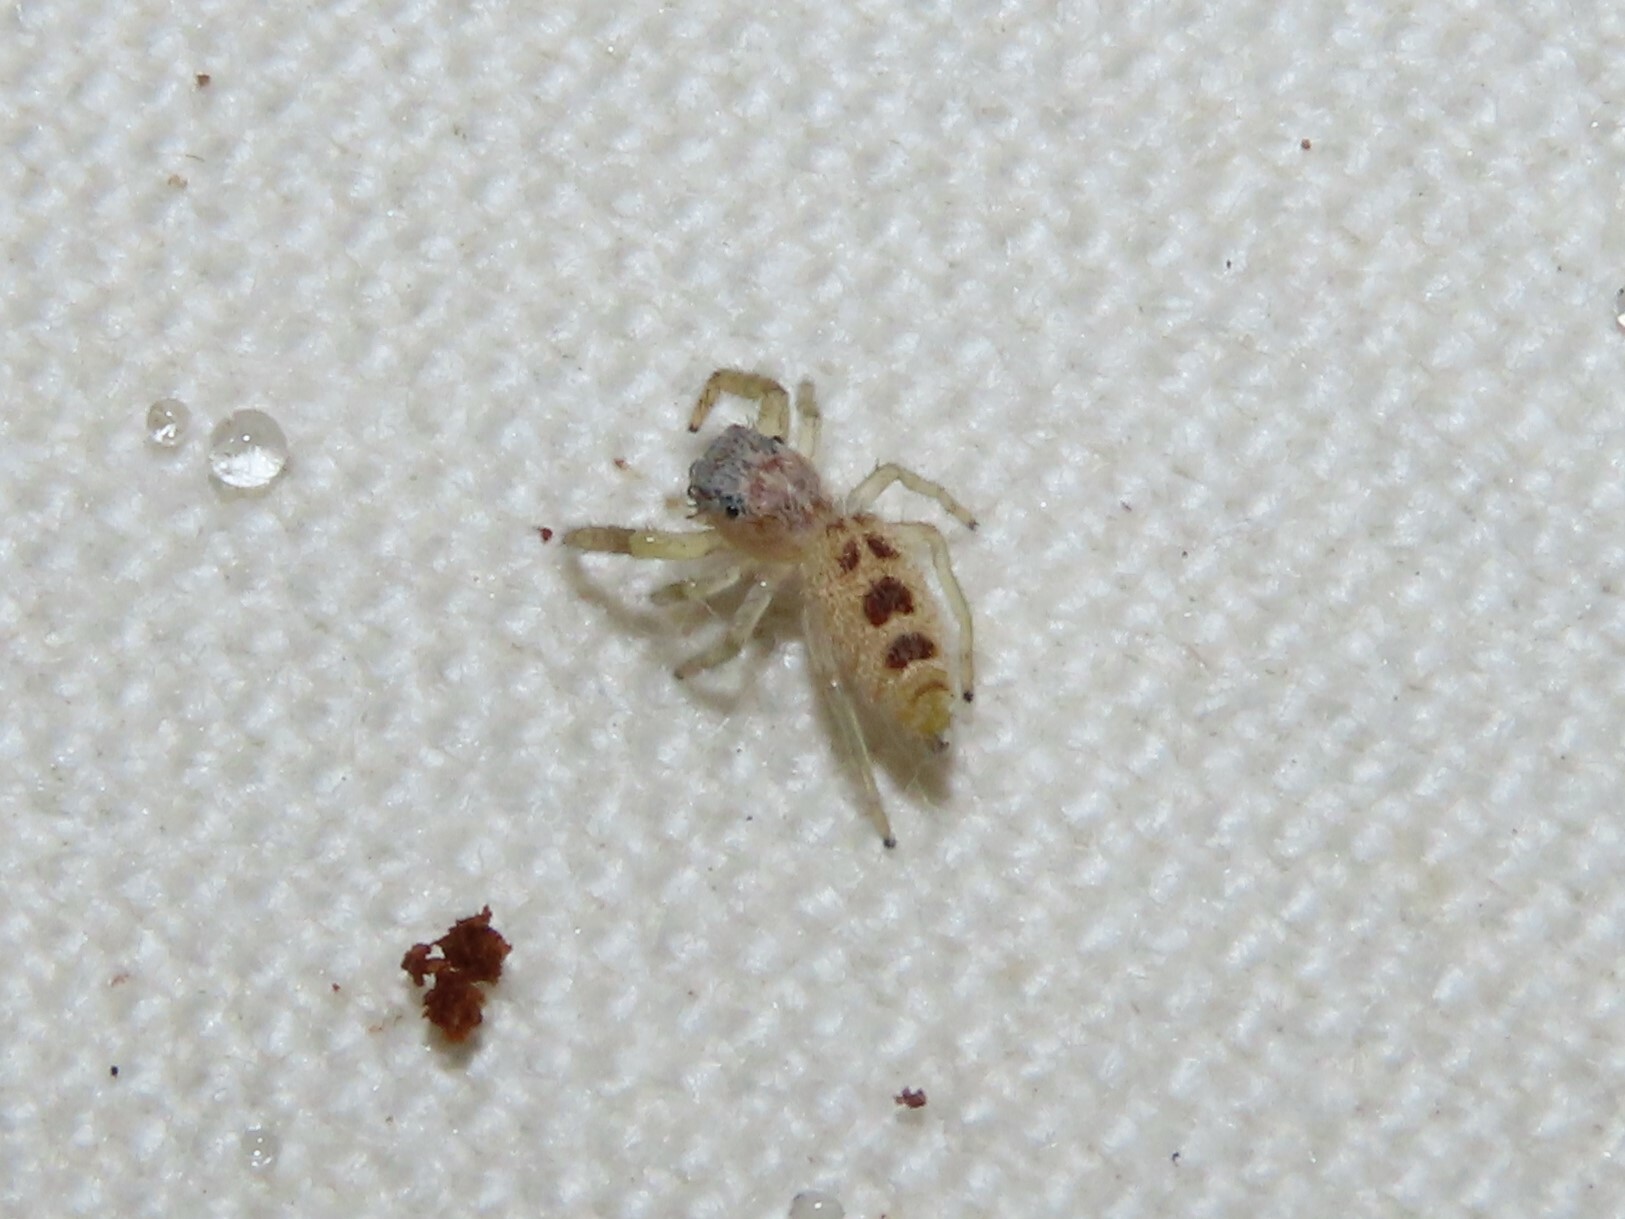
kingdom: Animalia
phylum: Arthropoda
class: Arachnida
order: Araneae
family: Salticidae
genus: Hentzia
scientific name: Hentzia mitrata
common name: White-jawed jumping spider
